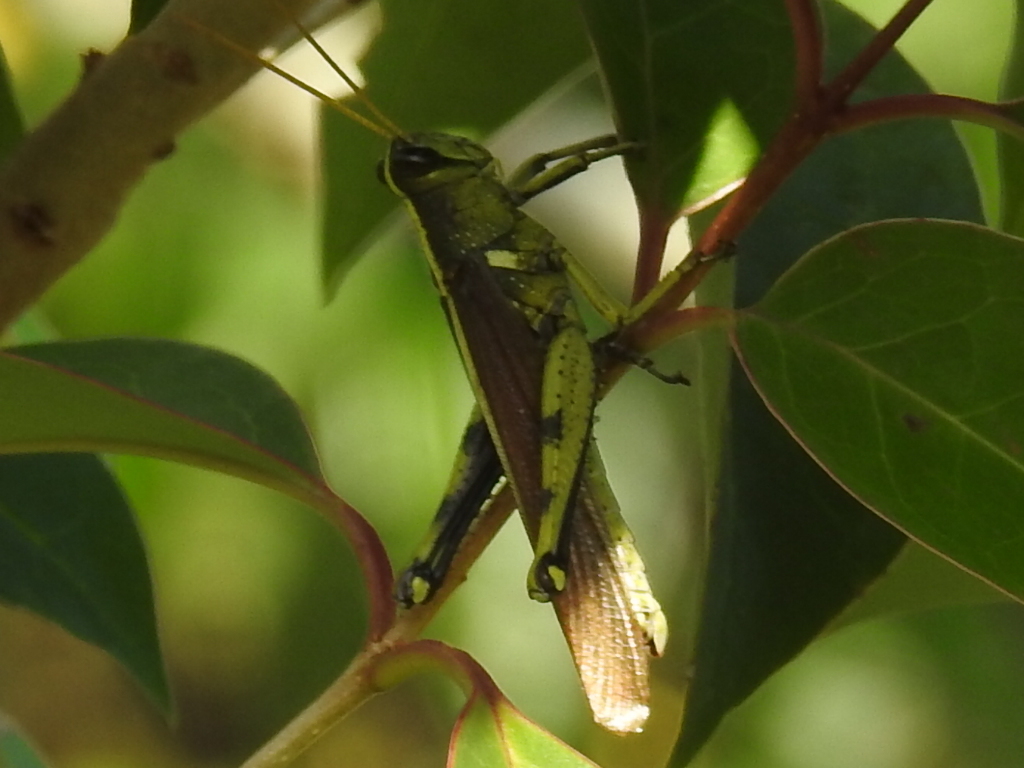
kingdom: Animalia
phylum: Arthropoda
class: Insecta
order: Orthoptera
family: Acrididae
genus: Schistocerca
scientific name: Schistocerca obscura
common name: Obscure bird grasshopper
